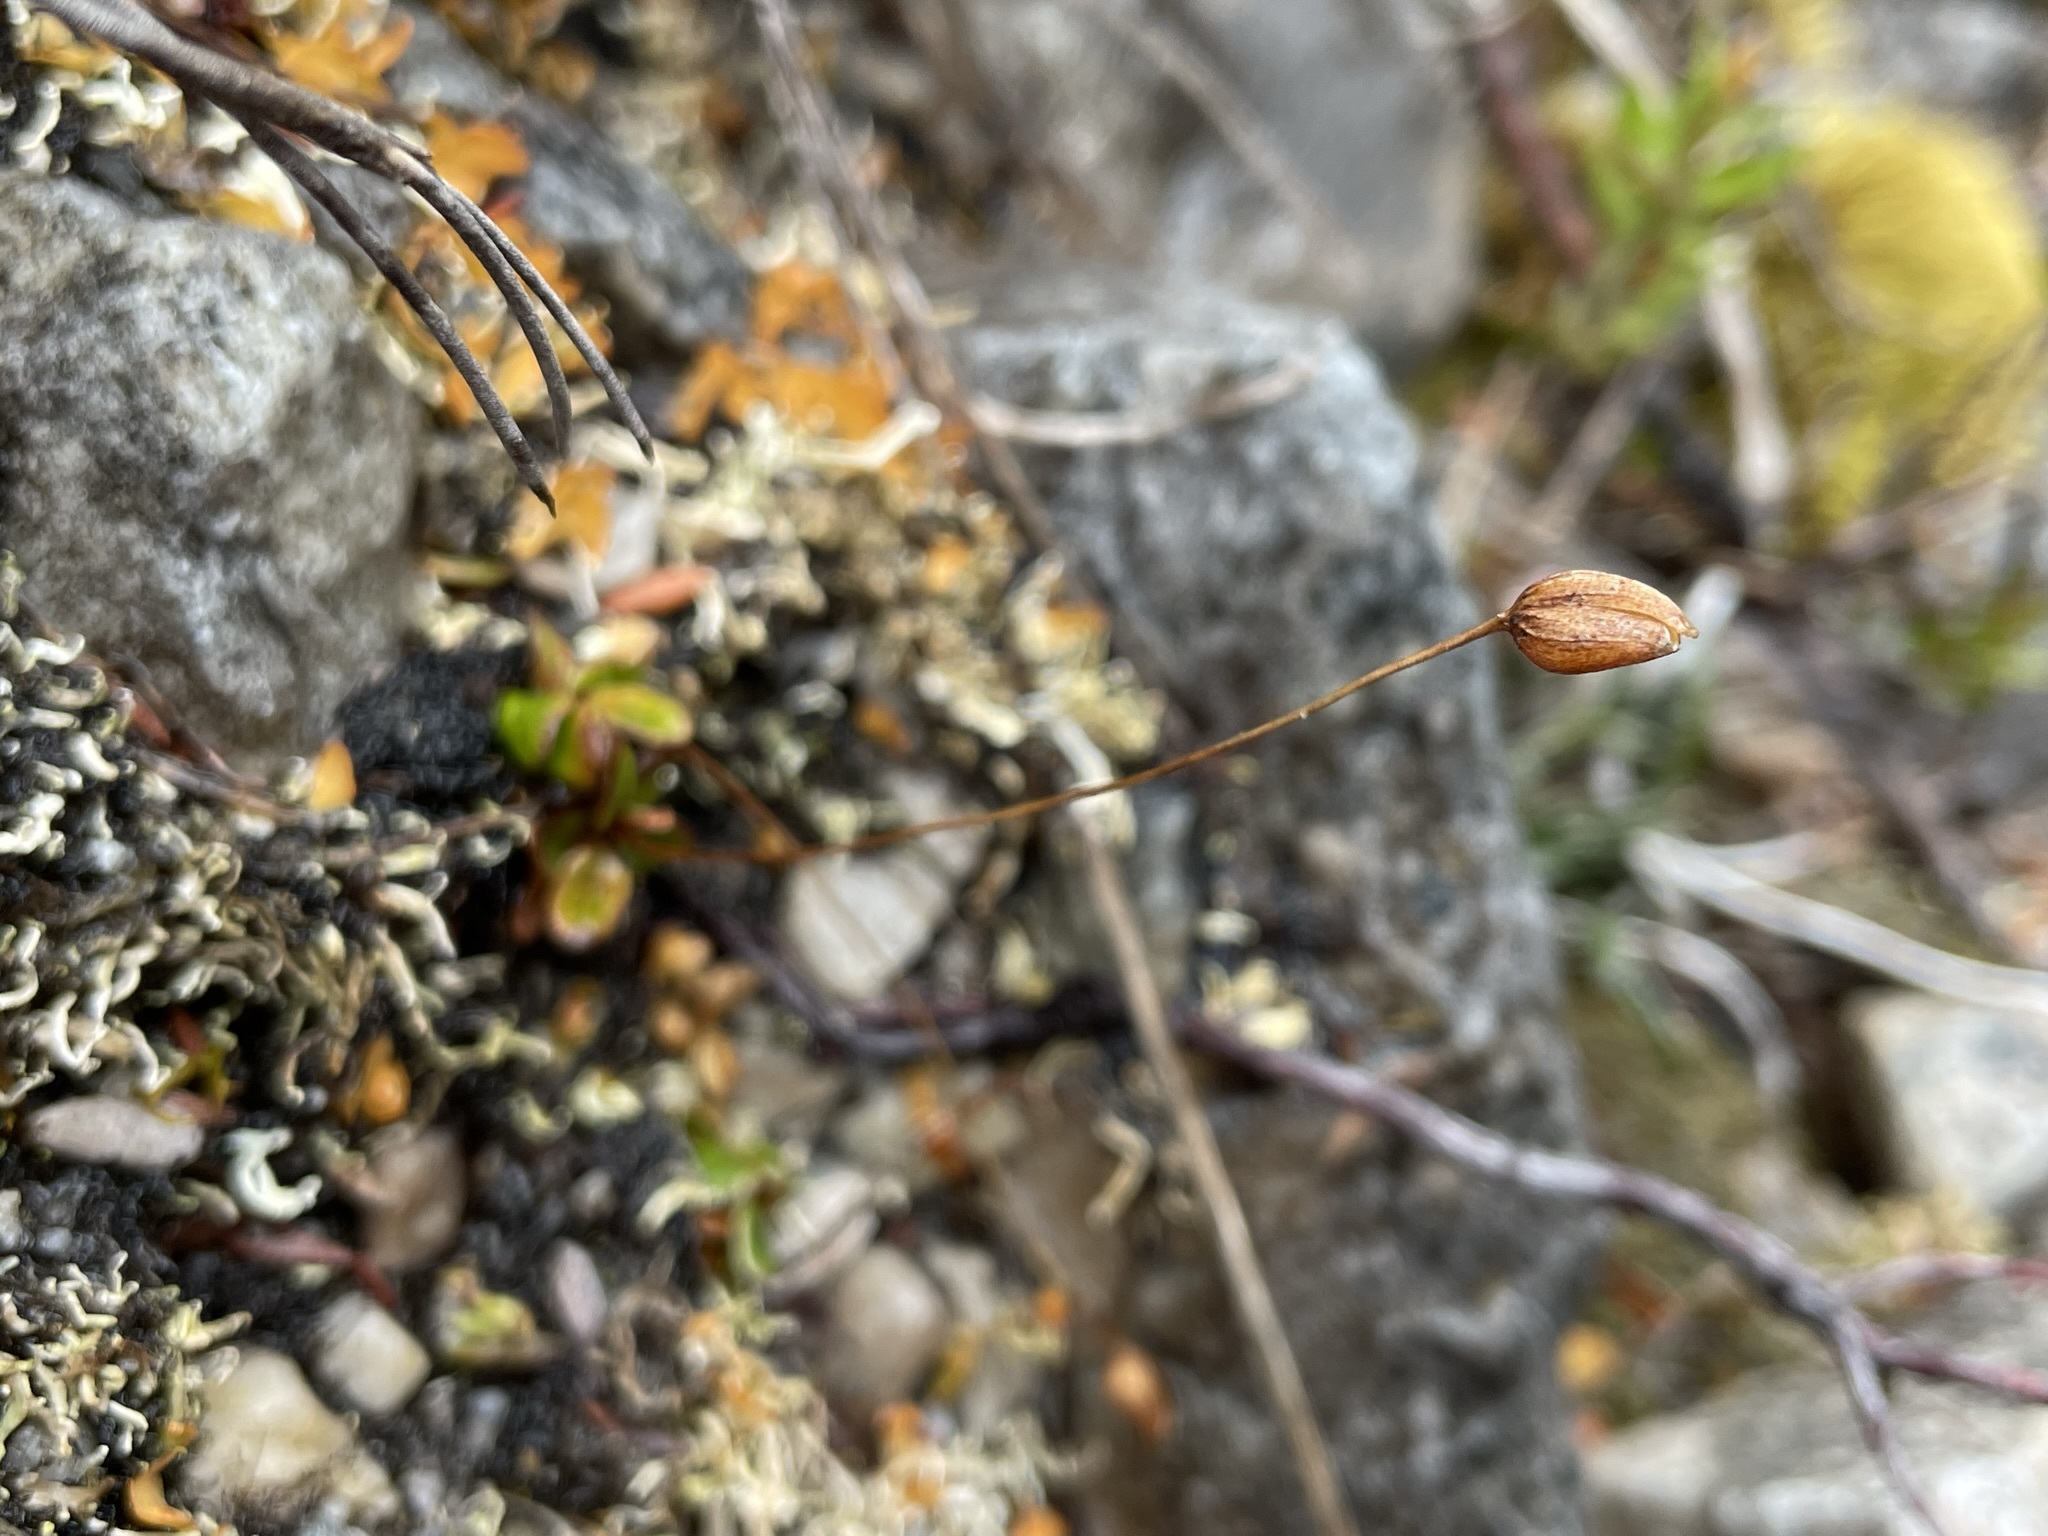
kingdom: Plantae
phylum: Tracheophyta
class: Magnoliopsida
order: Asterales
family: Stylidiaceae
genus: Forstera
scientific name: Forstera bellidifolia
